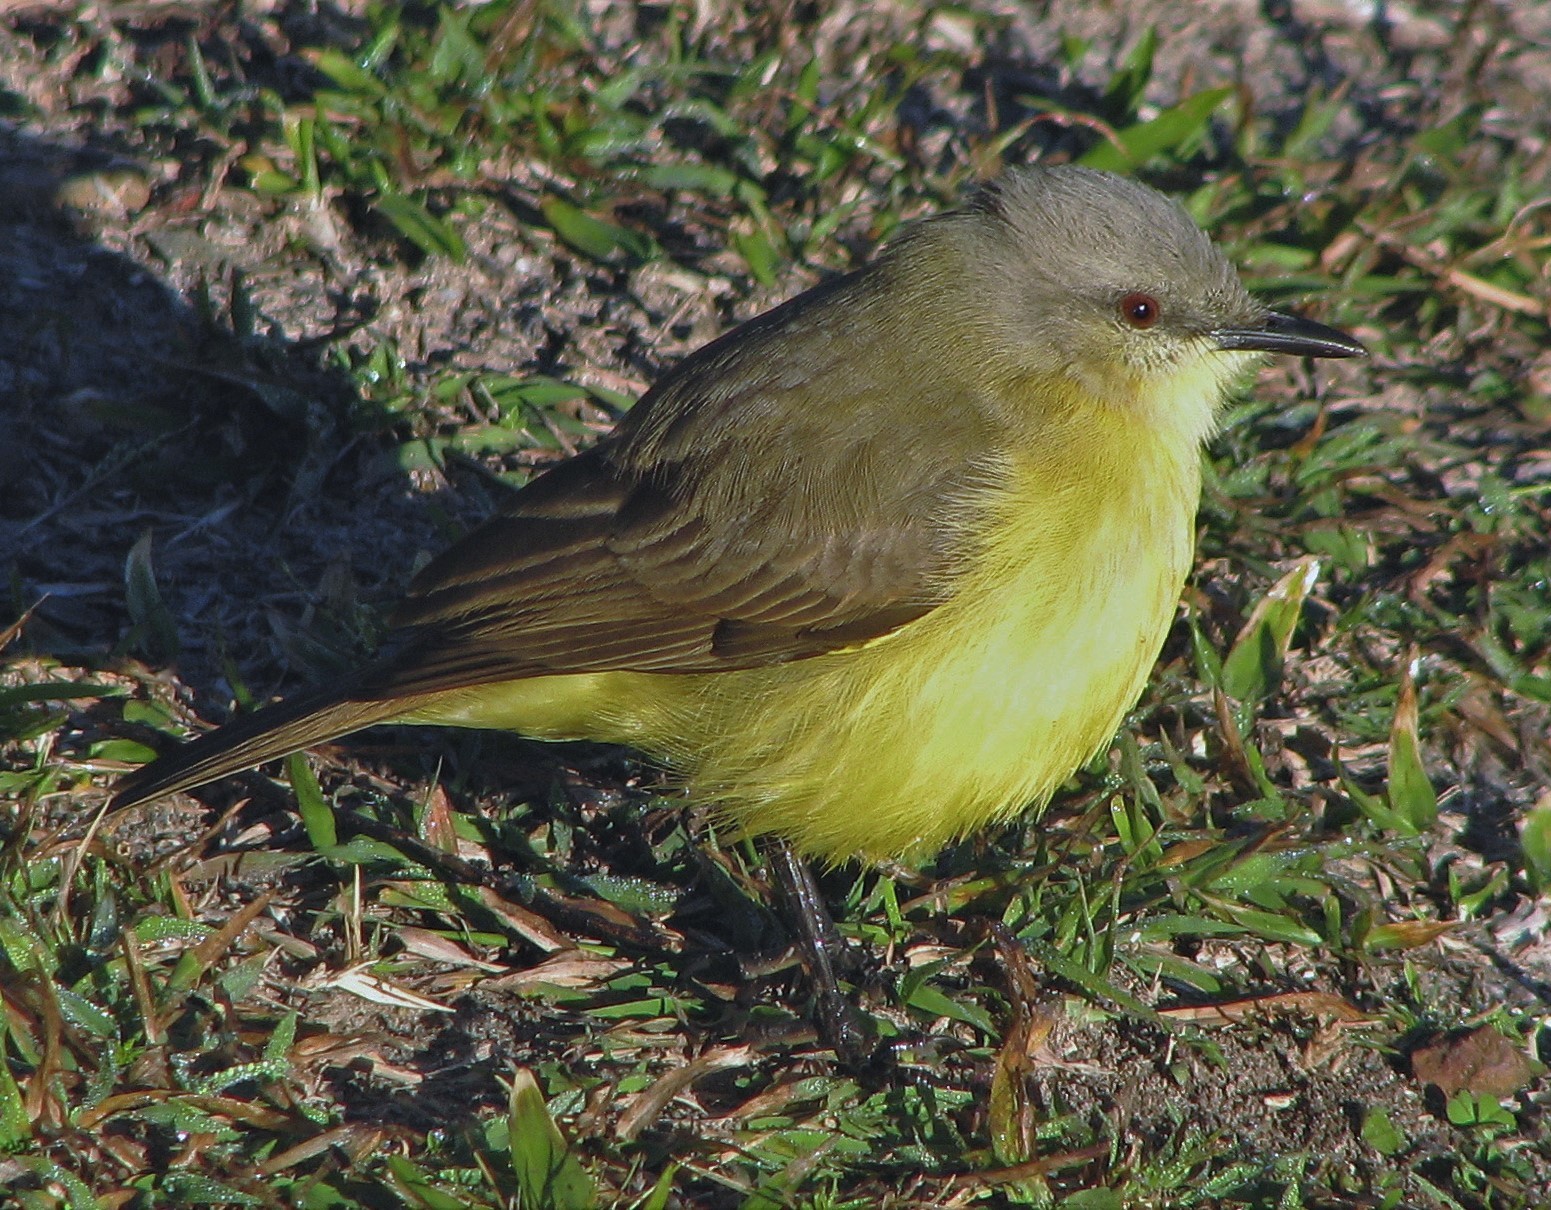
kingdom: Animalia
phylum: Chordata
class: Aves
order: Passeriformes
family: Tyrannidae
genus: Machetornis
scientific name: Machetornis rixosa
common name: Cattle tyrant
